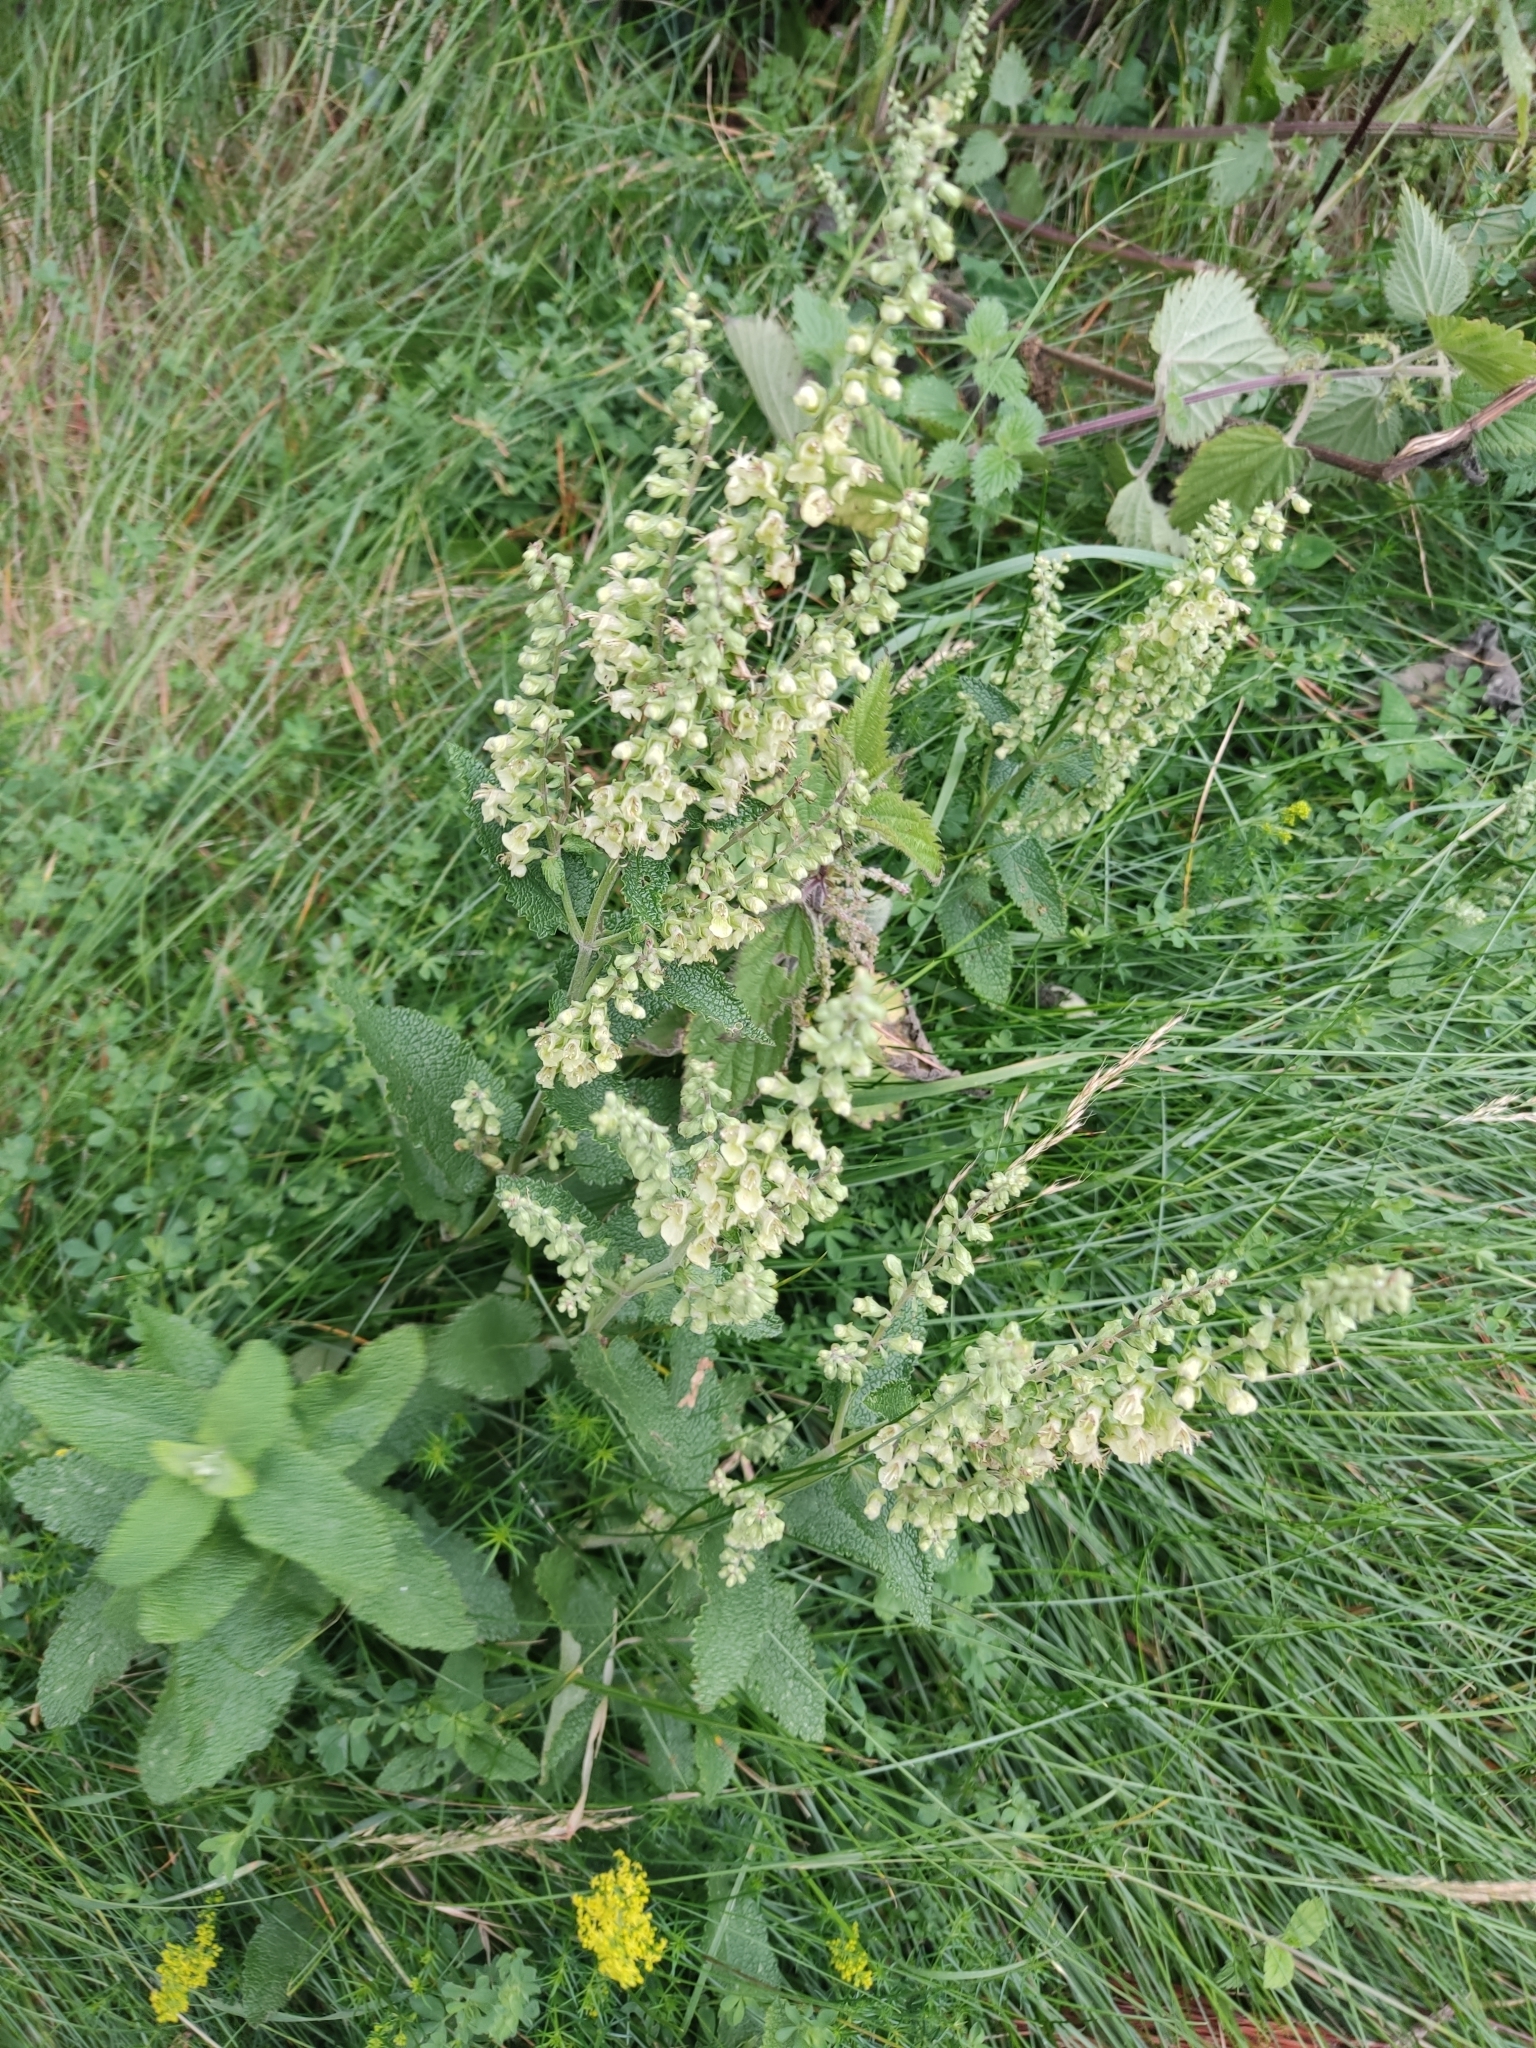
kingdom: Plantae
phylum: Tracheophyta
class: Magnoliopsida
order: Lamiales
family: Lamiaceae
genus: Teucrium
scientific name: Teucrium scorodonia
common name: Woodland germander
